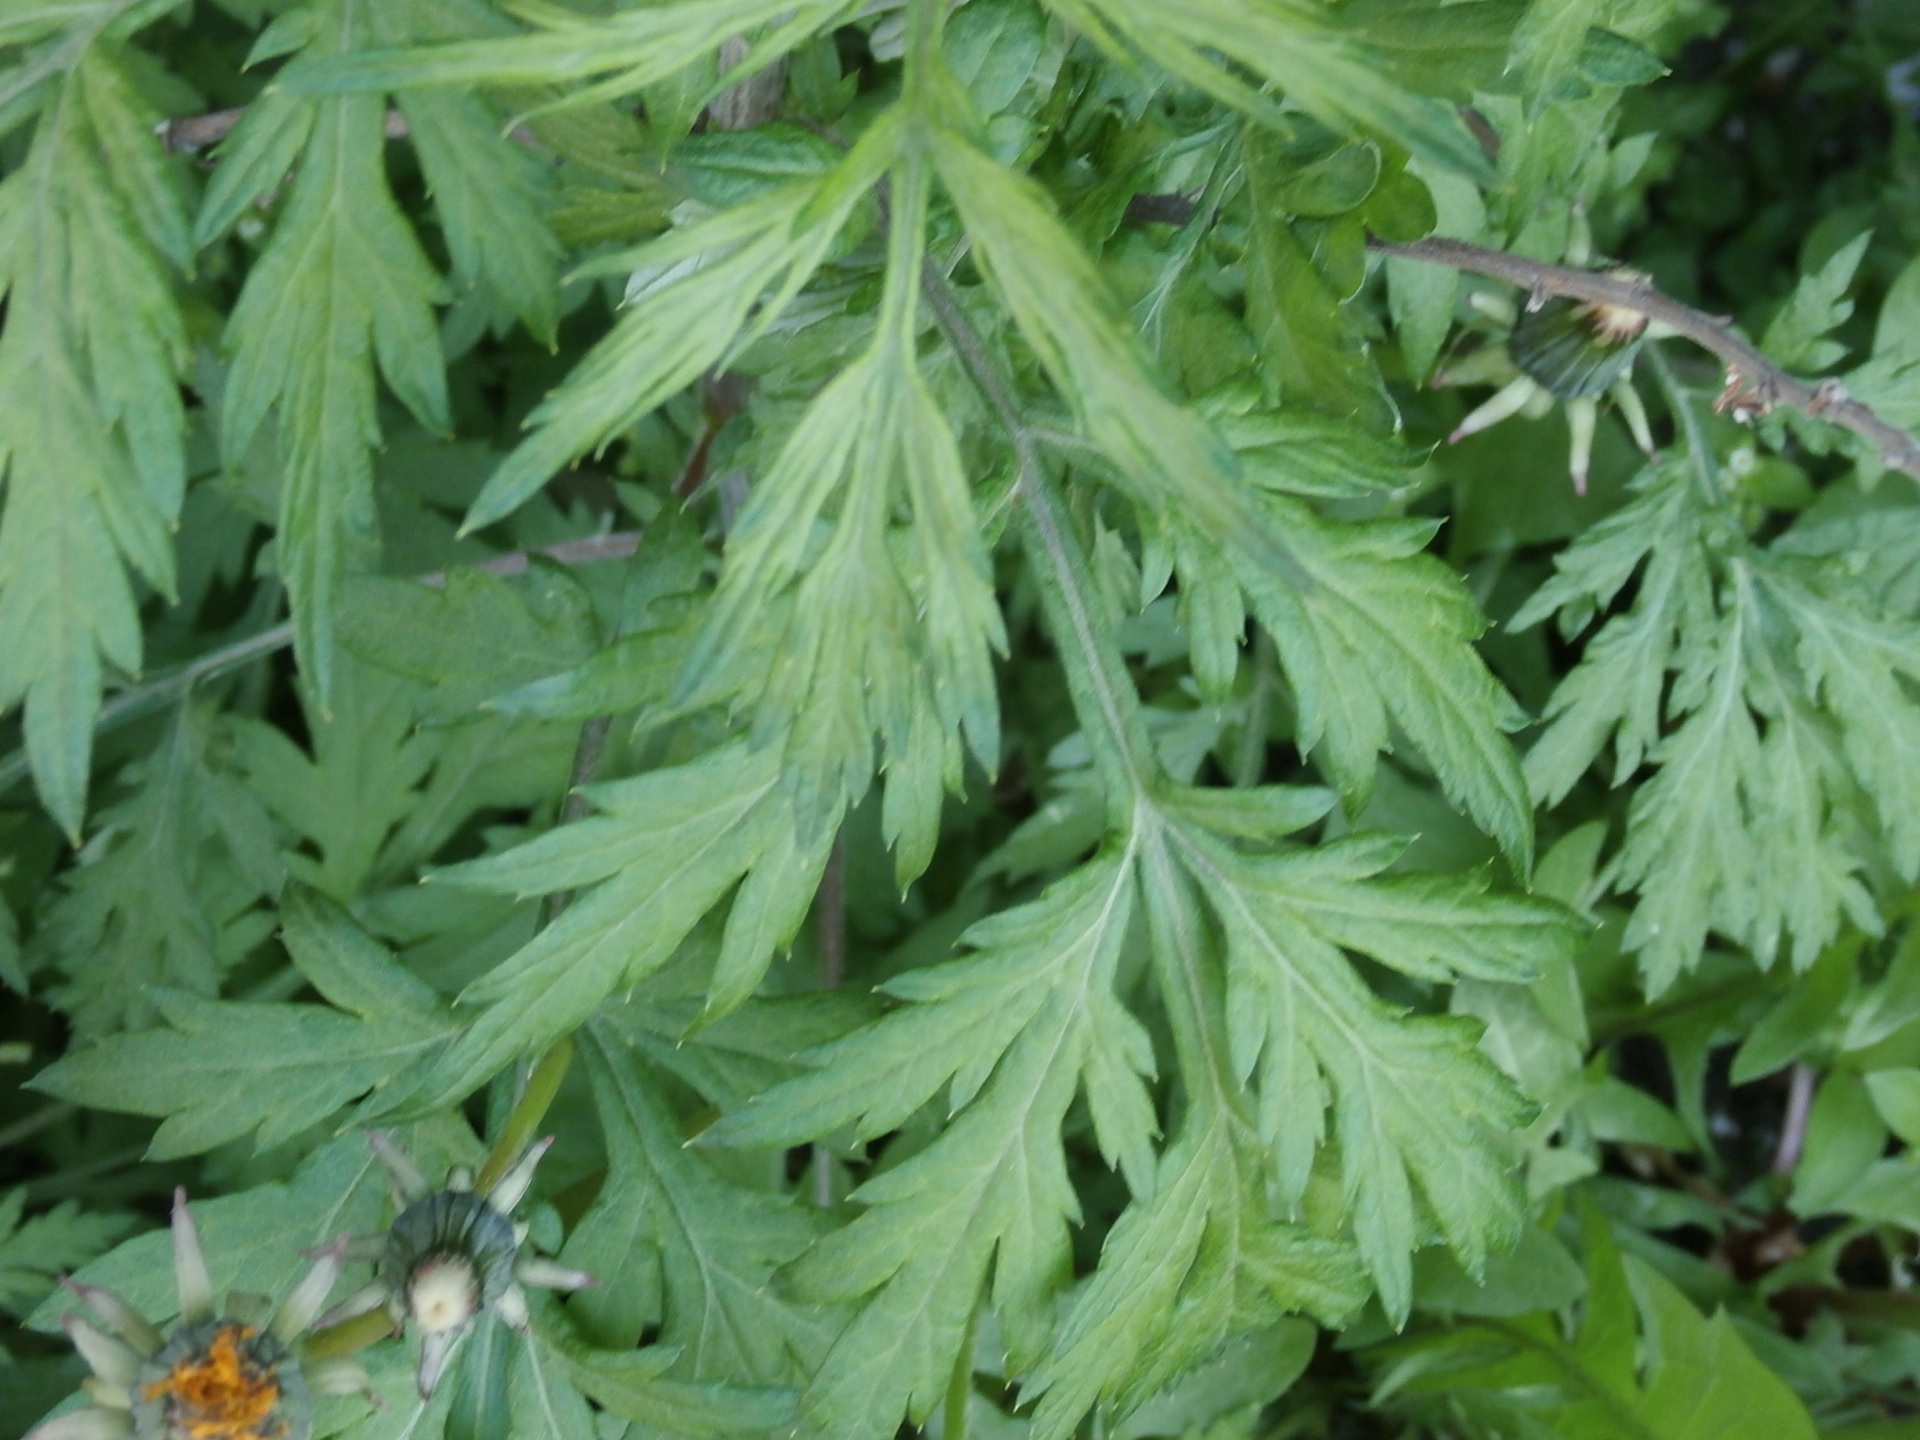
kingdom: Plantae
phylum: Tracheophyta
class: Magnoliopsida
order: Asterales
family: Asteraceae
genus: Artemisia
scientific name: Artemisia vulgaris
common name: Mugwort
